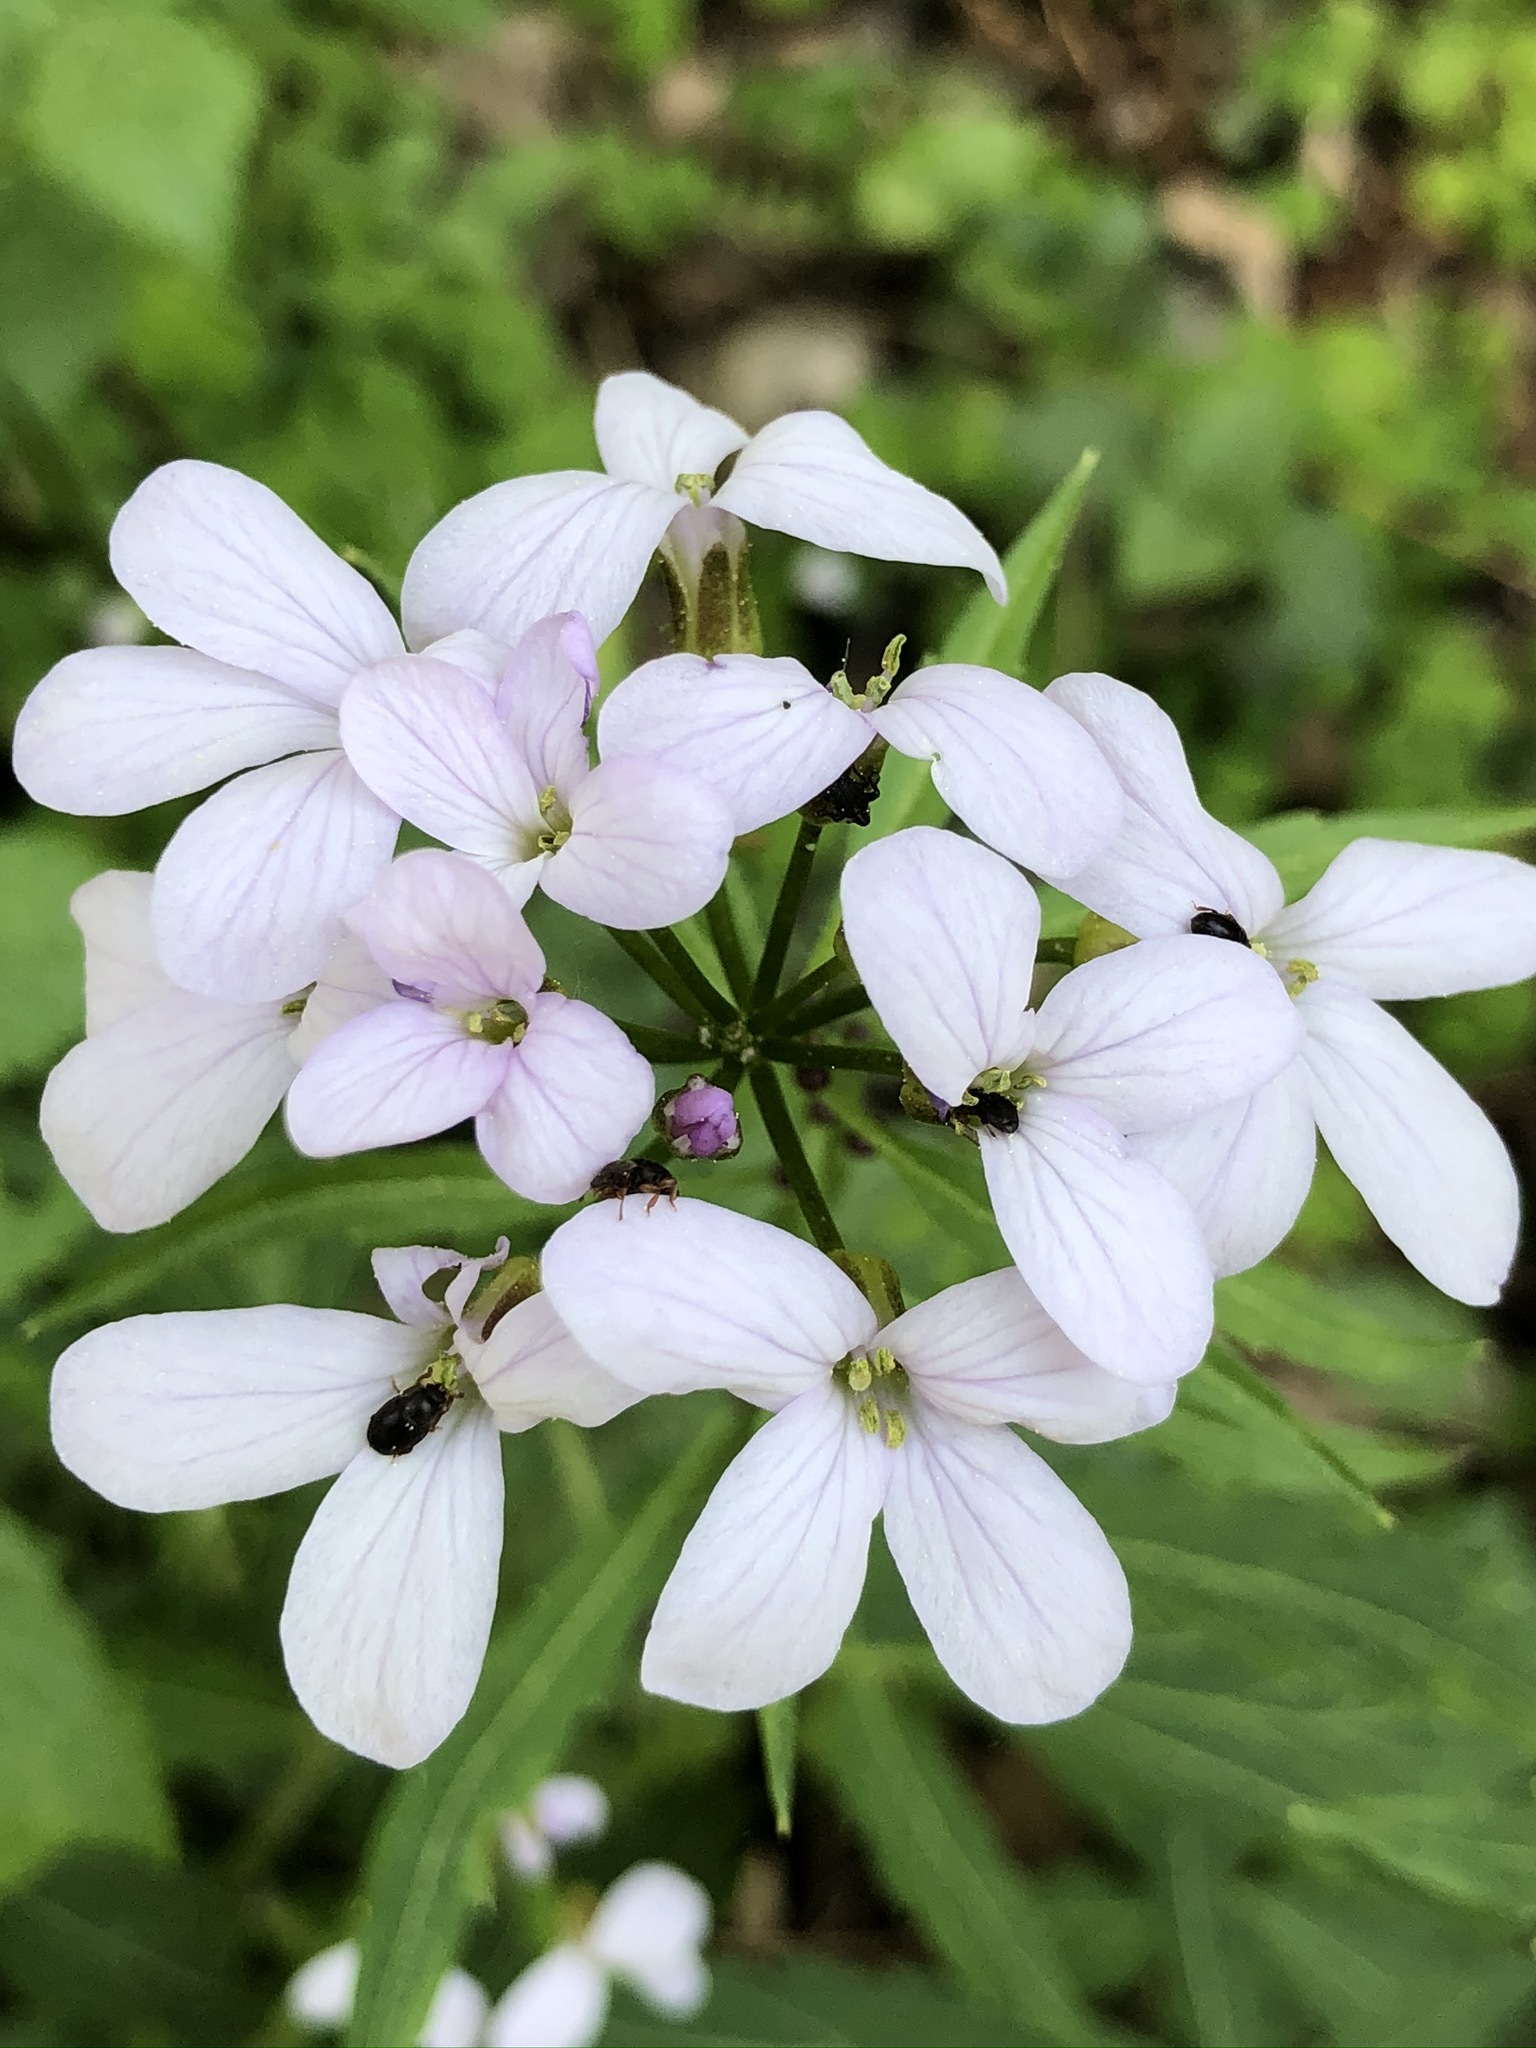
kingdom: Plantae
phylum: Tracheophyta
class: Magnoliopsida
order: Brassicales
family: Brassicaceae
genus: Cardamine
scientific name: Cardamine bulbifera
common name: Coralroot bittercress
